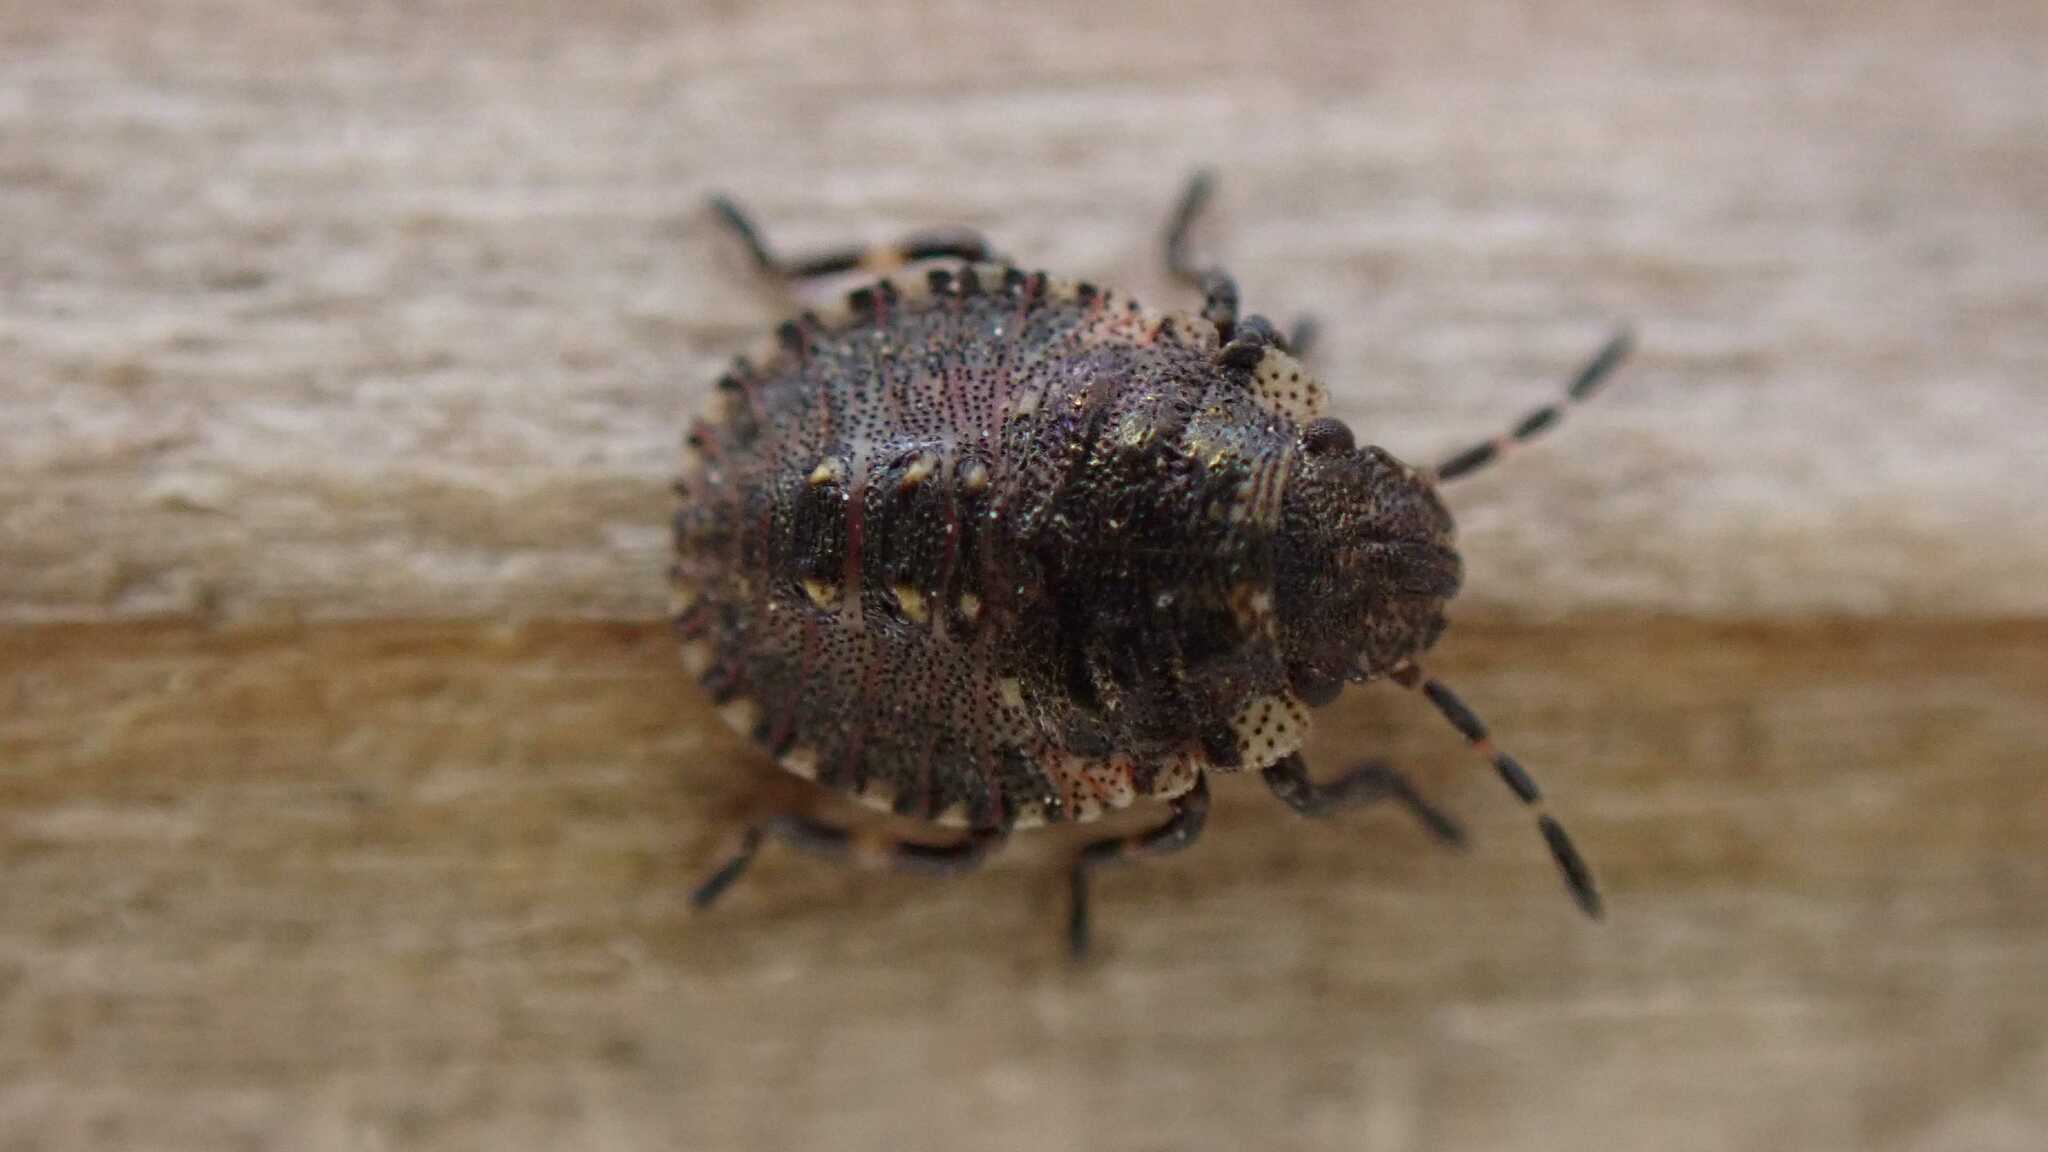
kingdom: Animalia
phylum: Arthropoda
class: Insecta
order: Hemiptera
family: Pentatomidae
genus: Pentatoma
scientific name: Pentatoma rufipes
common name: Forest bug
